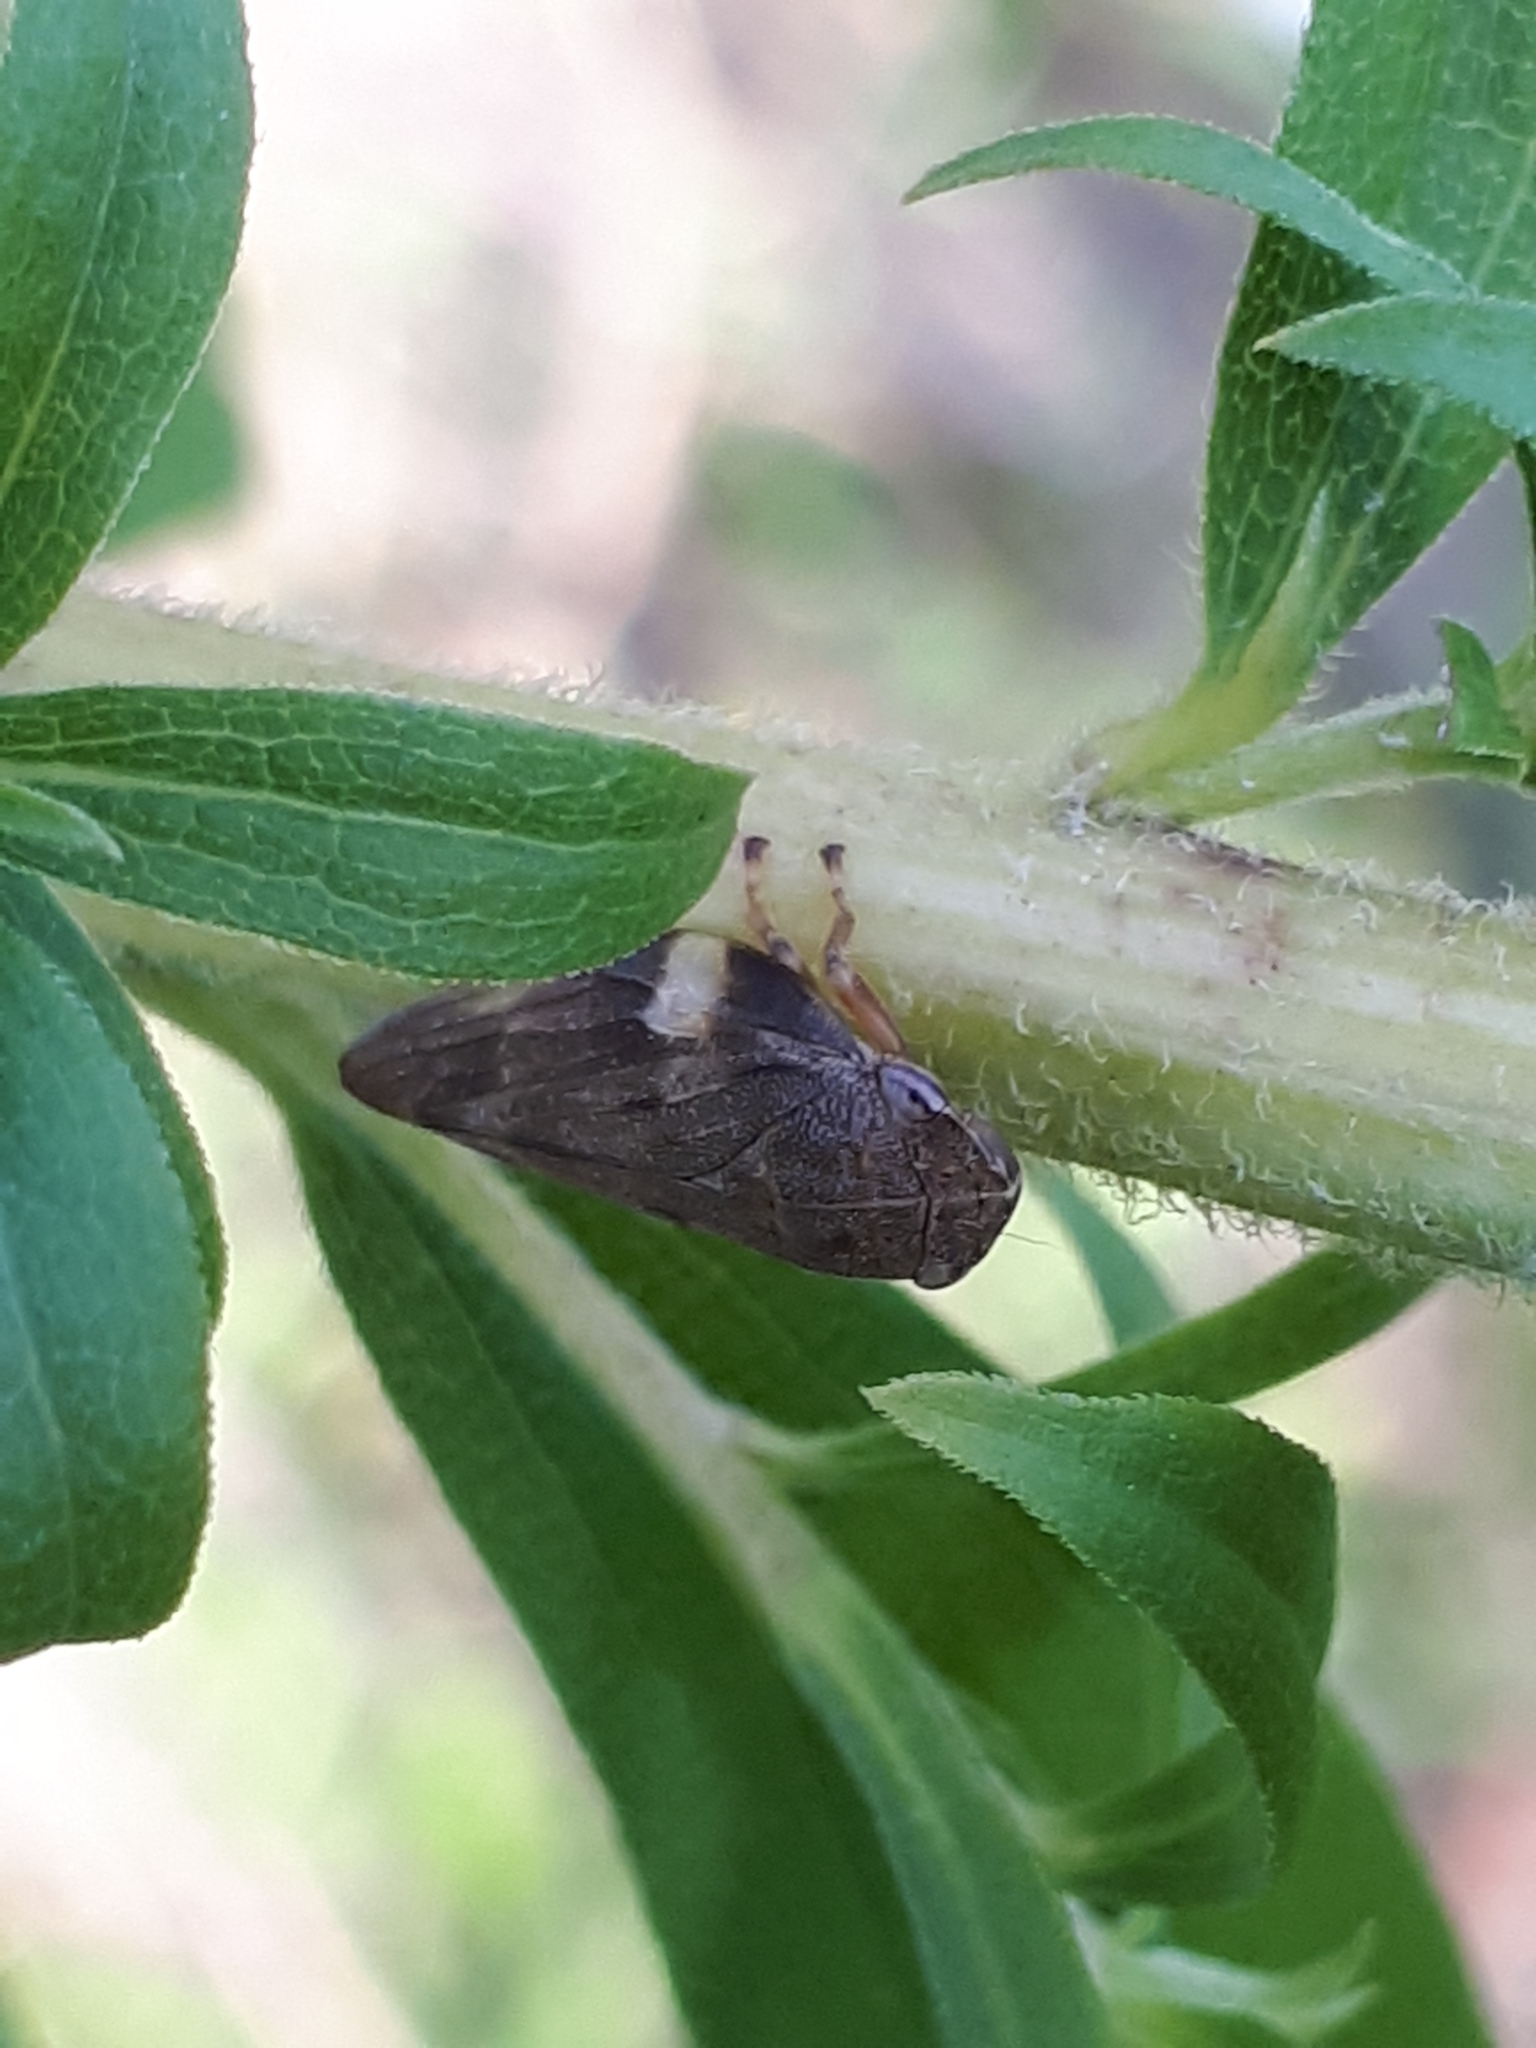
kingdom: Animalia
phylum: Arthropoda
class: Insecta
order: Hemiptera
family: Aphrophoridae
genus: Aphrophora
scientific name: Aphrophora alni
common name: European alder spittlebug
